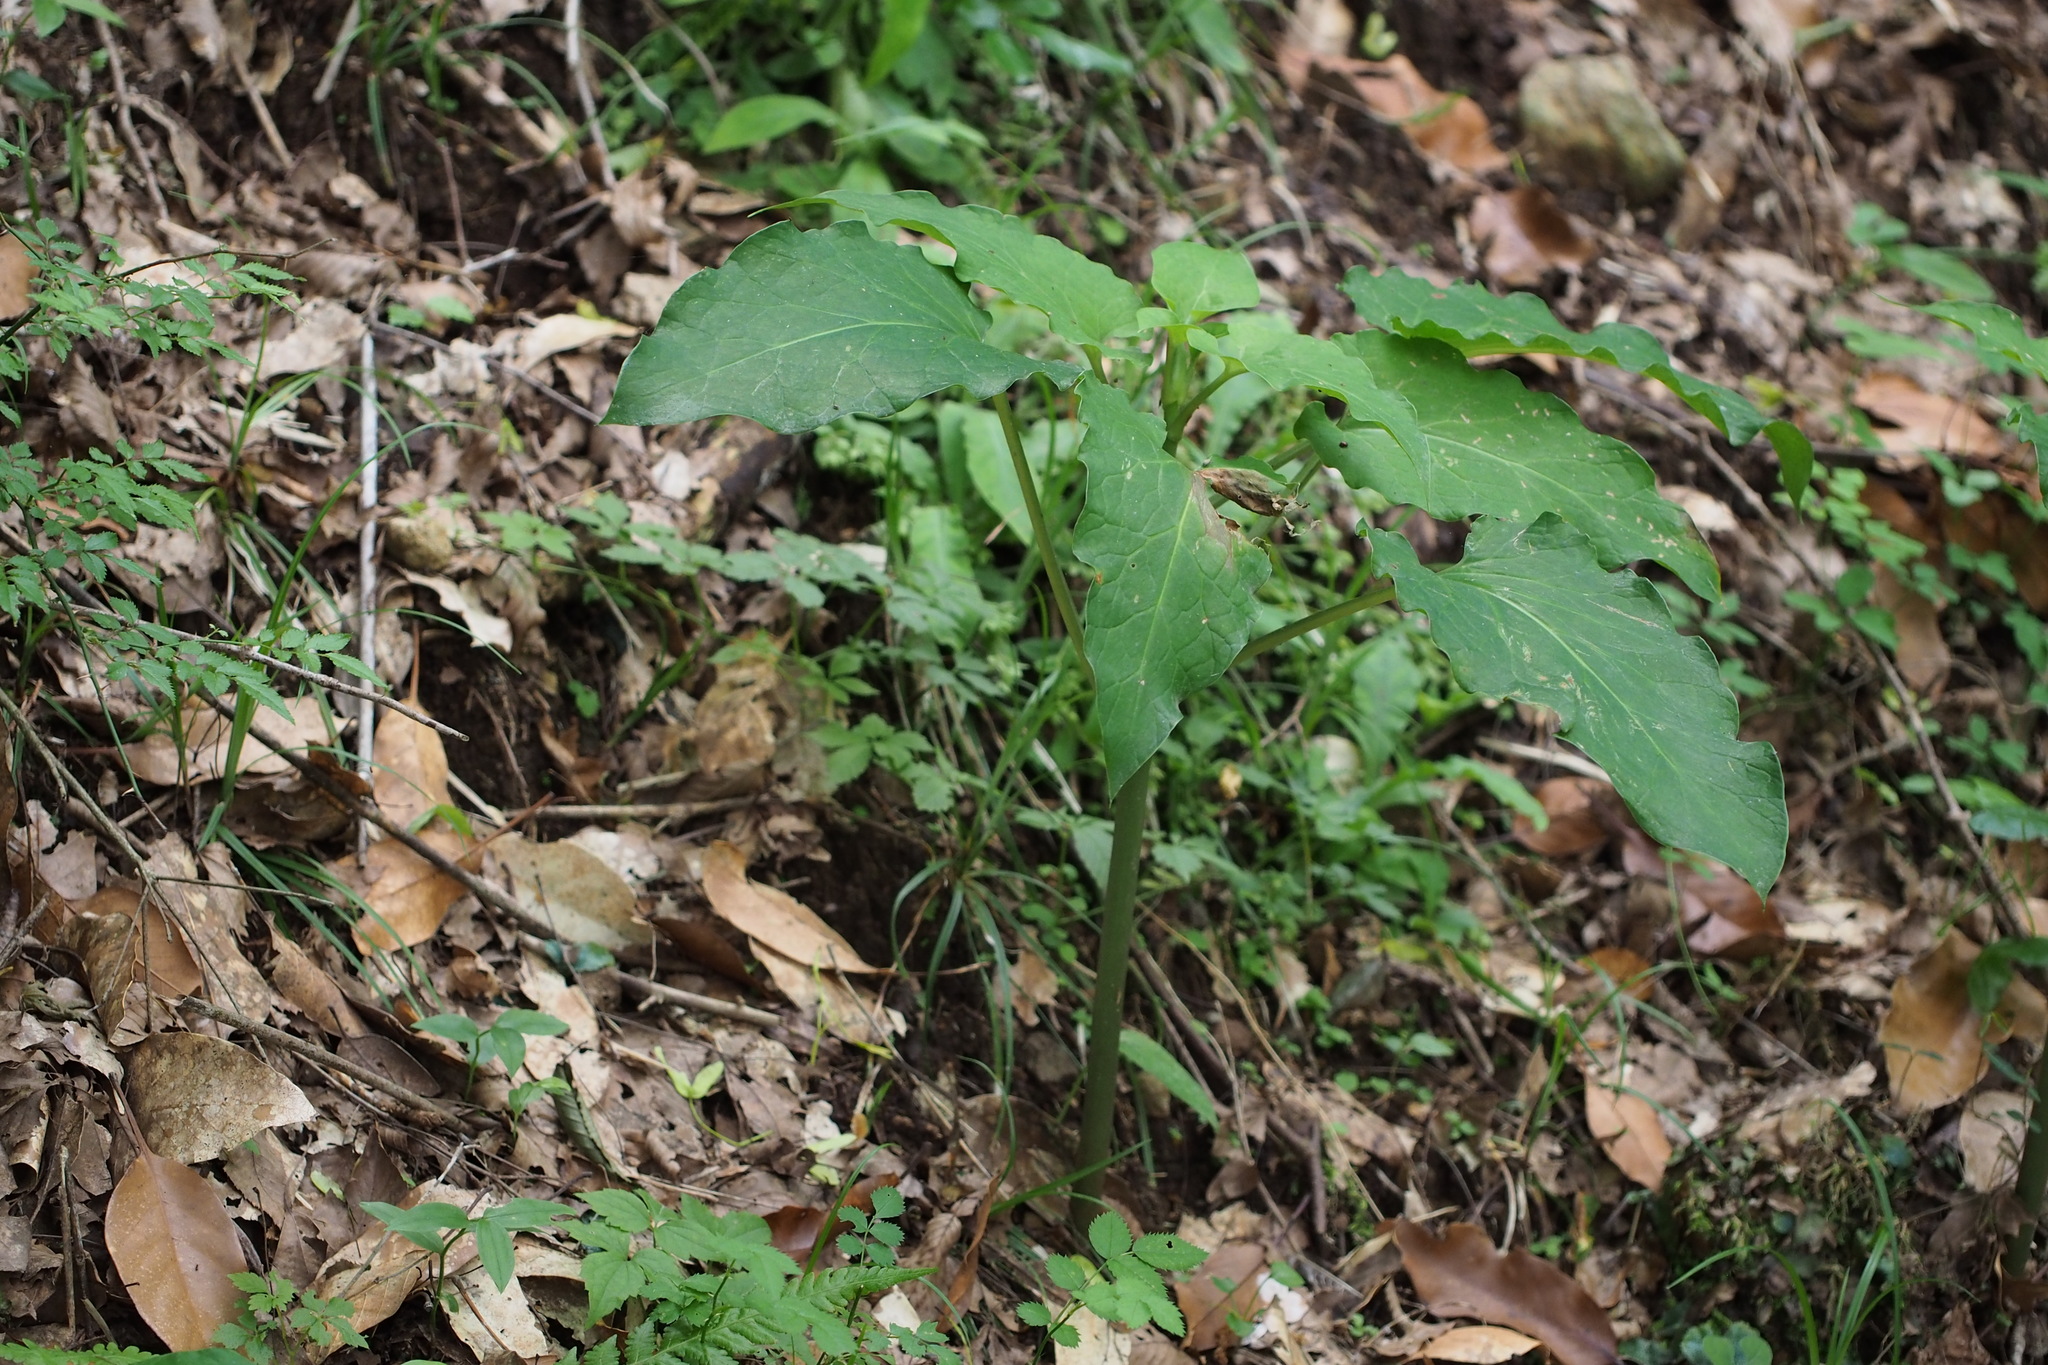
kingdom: Plantae
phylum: Tracheophyta
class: Liliopsida
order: Liliales
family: Liliaceae
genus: Cardiocrinum
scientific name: Cardiocrinum cordatum
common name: Lily
